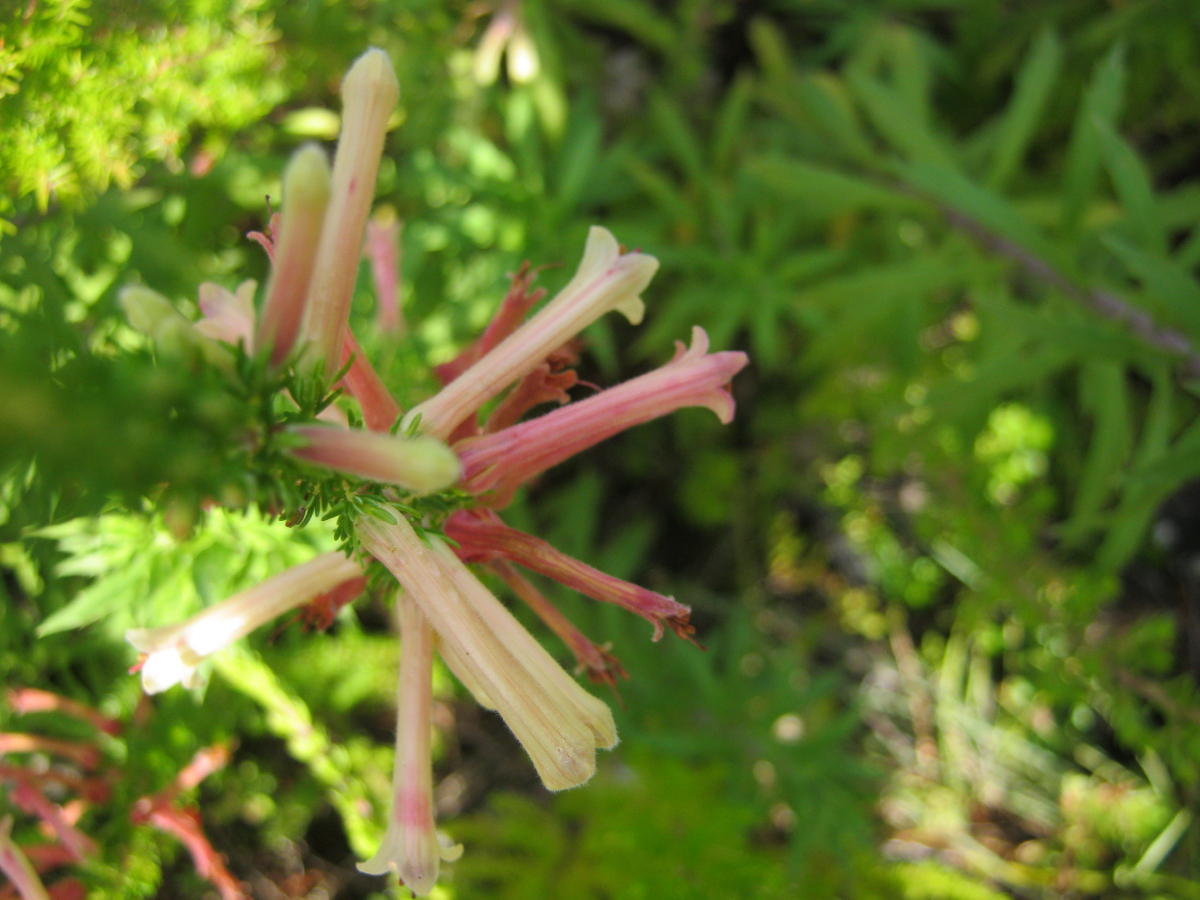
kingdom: Plantae
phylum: Tracheophyta
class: Magnoliopsida
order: Ericales
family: Ericaceae
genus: Erica
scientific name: Erica curviflora
